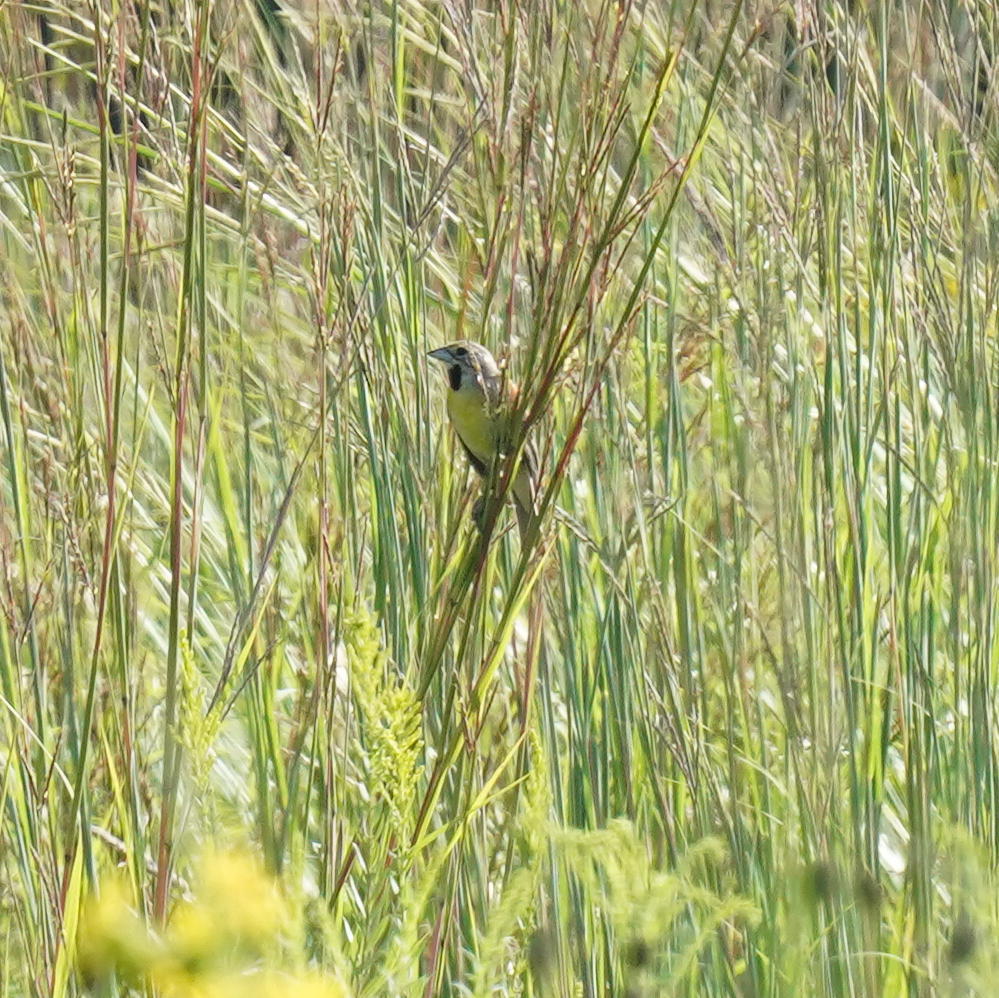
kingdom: Animalia
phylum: Chordata
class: Aves
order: Passeriformes
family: Cardinalidae
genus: Spiza
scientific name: Spiza americana
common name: Dickcissel
